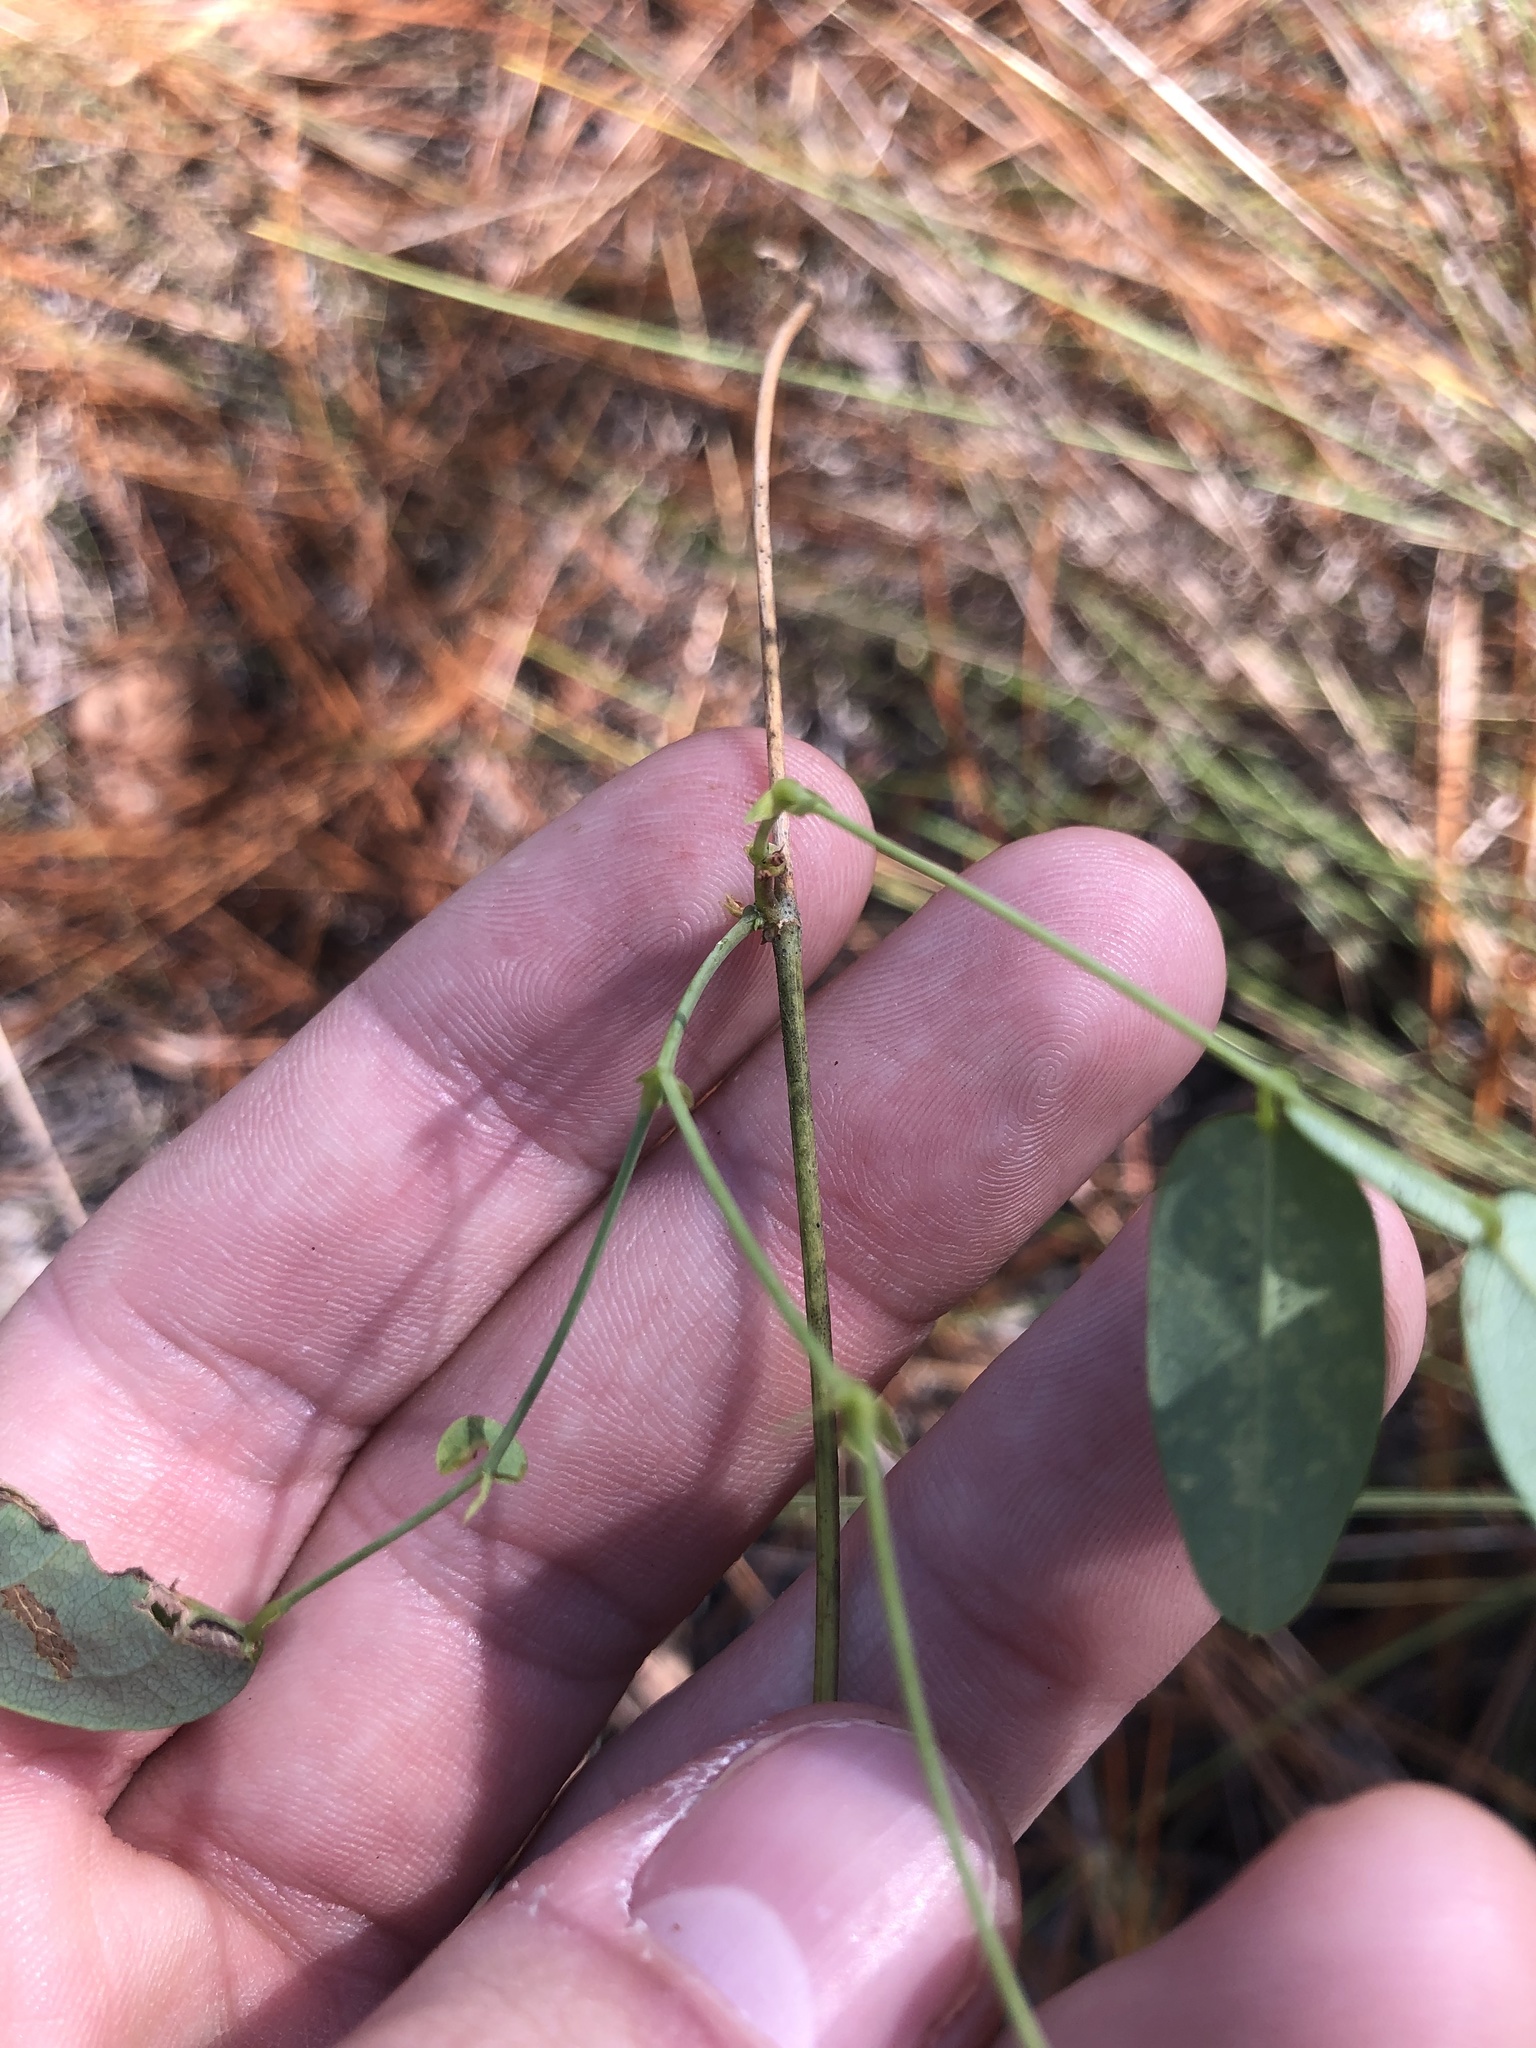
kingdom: Plantae
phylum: Tracheophyta
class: Magnoliopsida
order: Fabales
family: Fabaceae
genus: Clitoria
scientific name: Clitoria mariana
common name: Butterfly-pea
